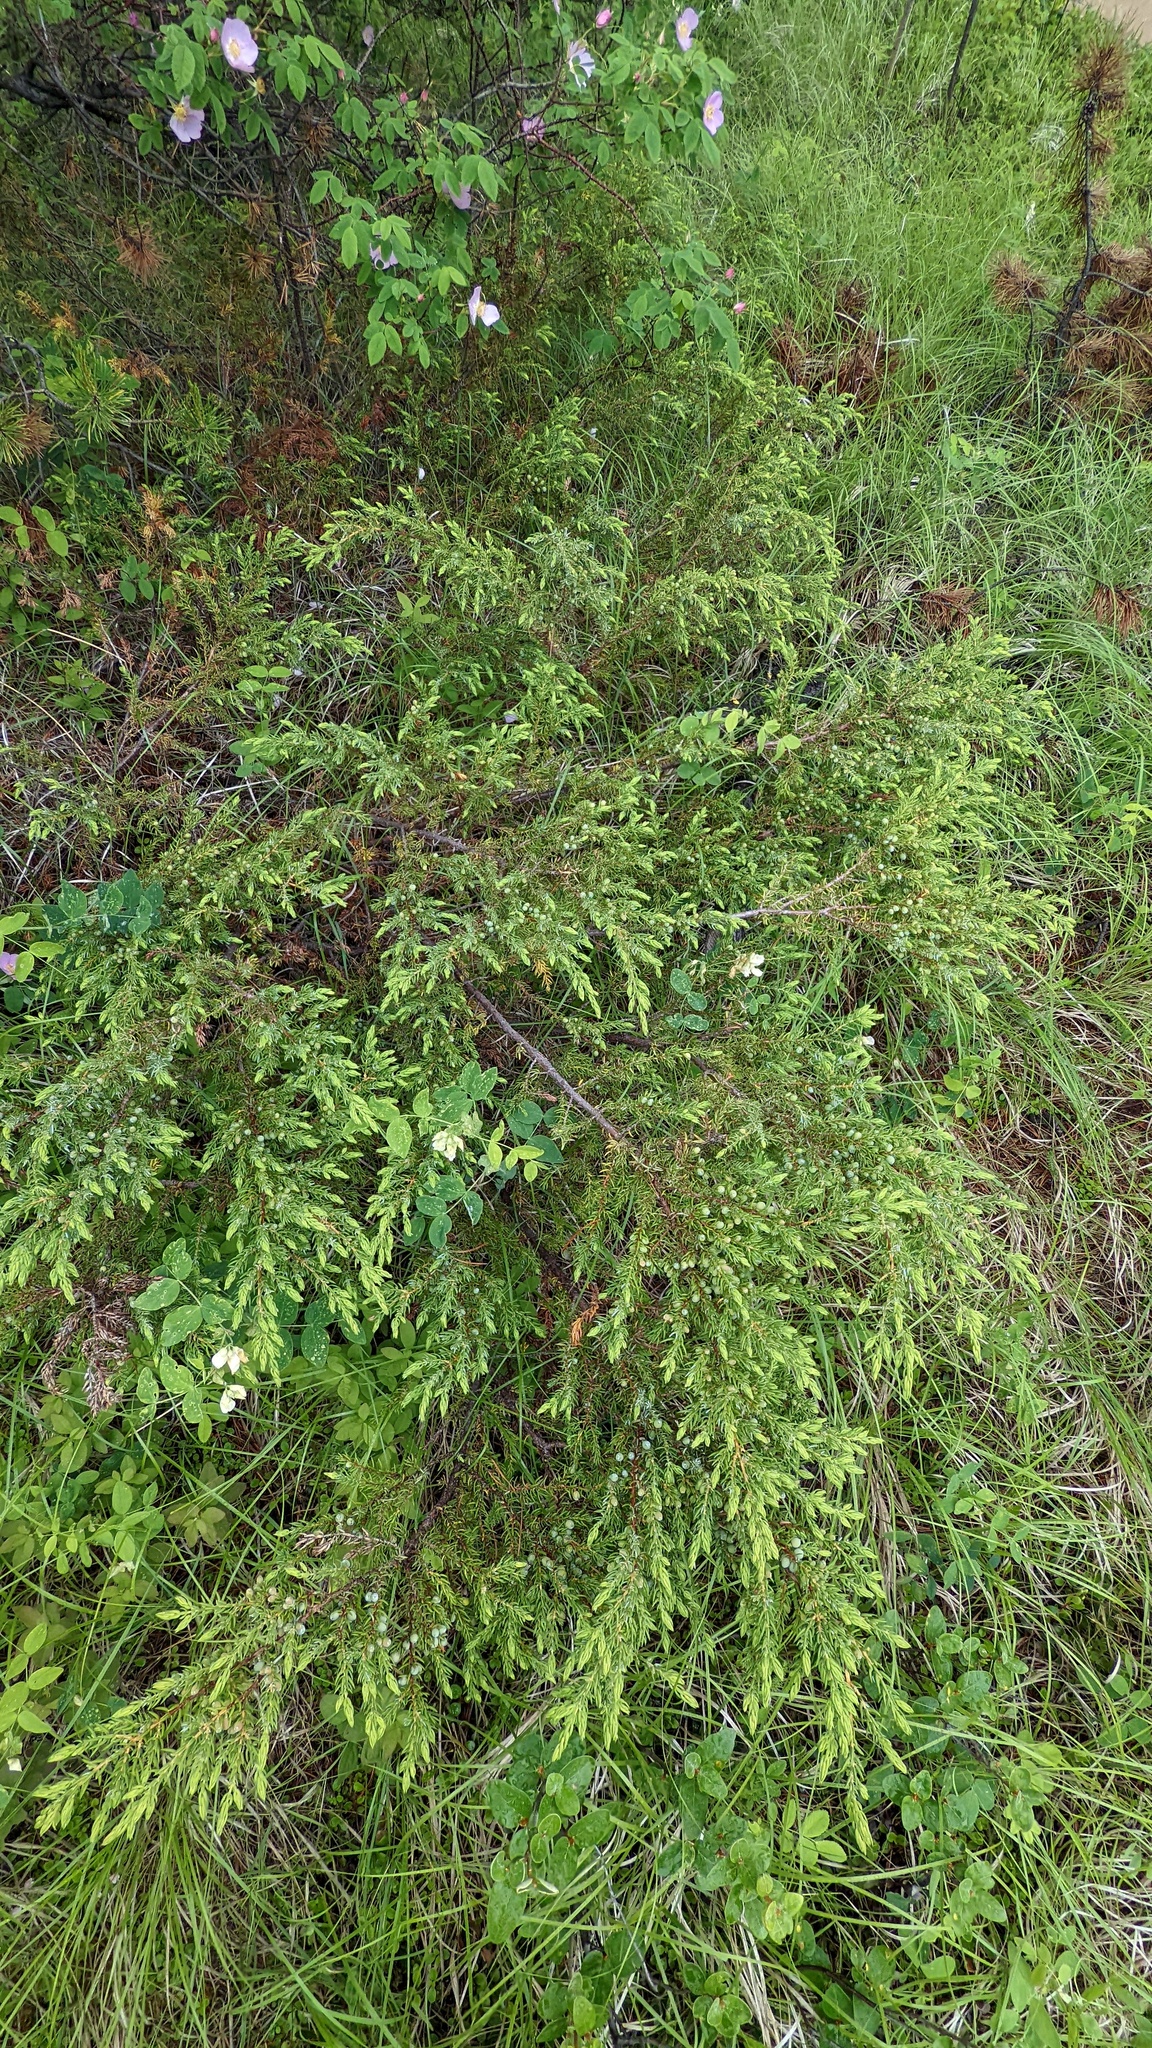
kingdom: Plantae
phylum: Tracheophyta
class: Pinopsida
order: Pinales
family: Cupressaceae
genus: Juniperus
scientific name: Juniperus communis
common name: Common juniper
